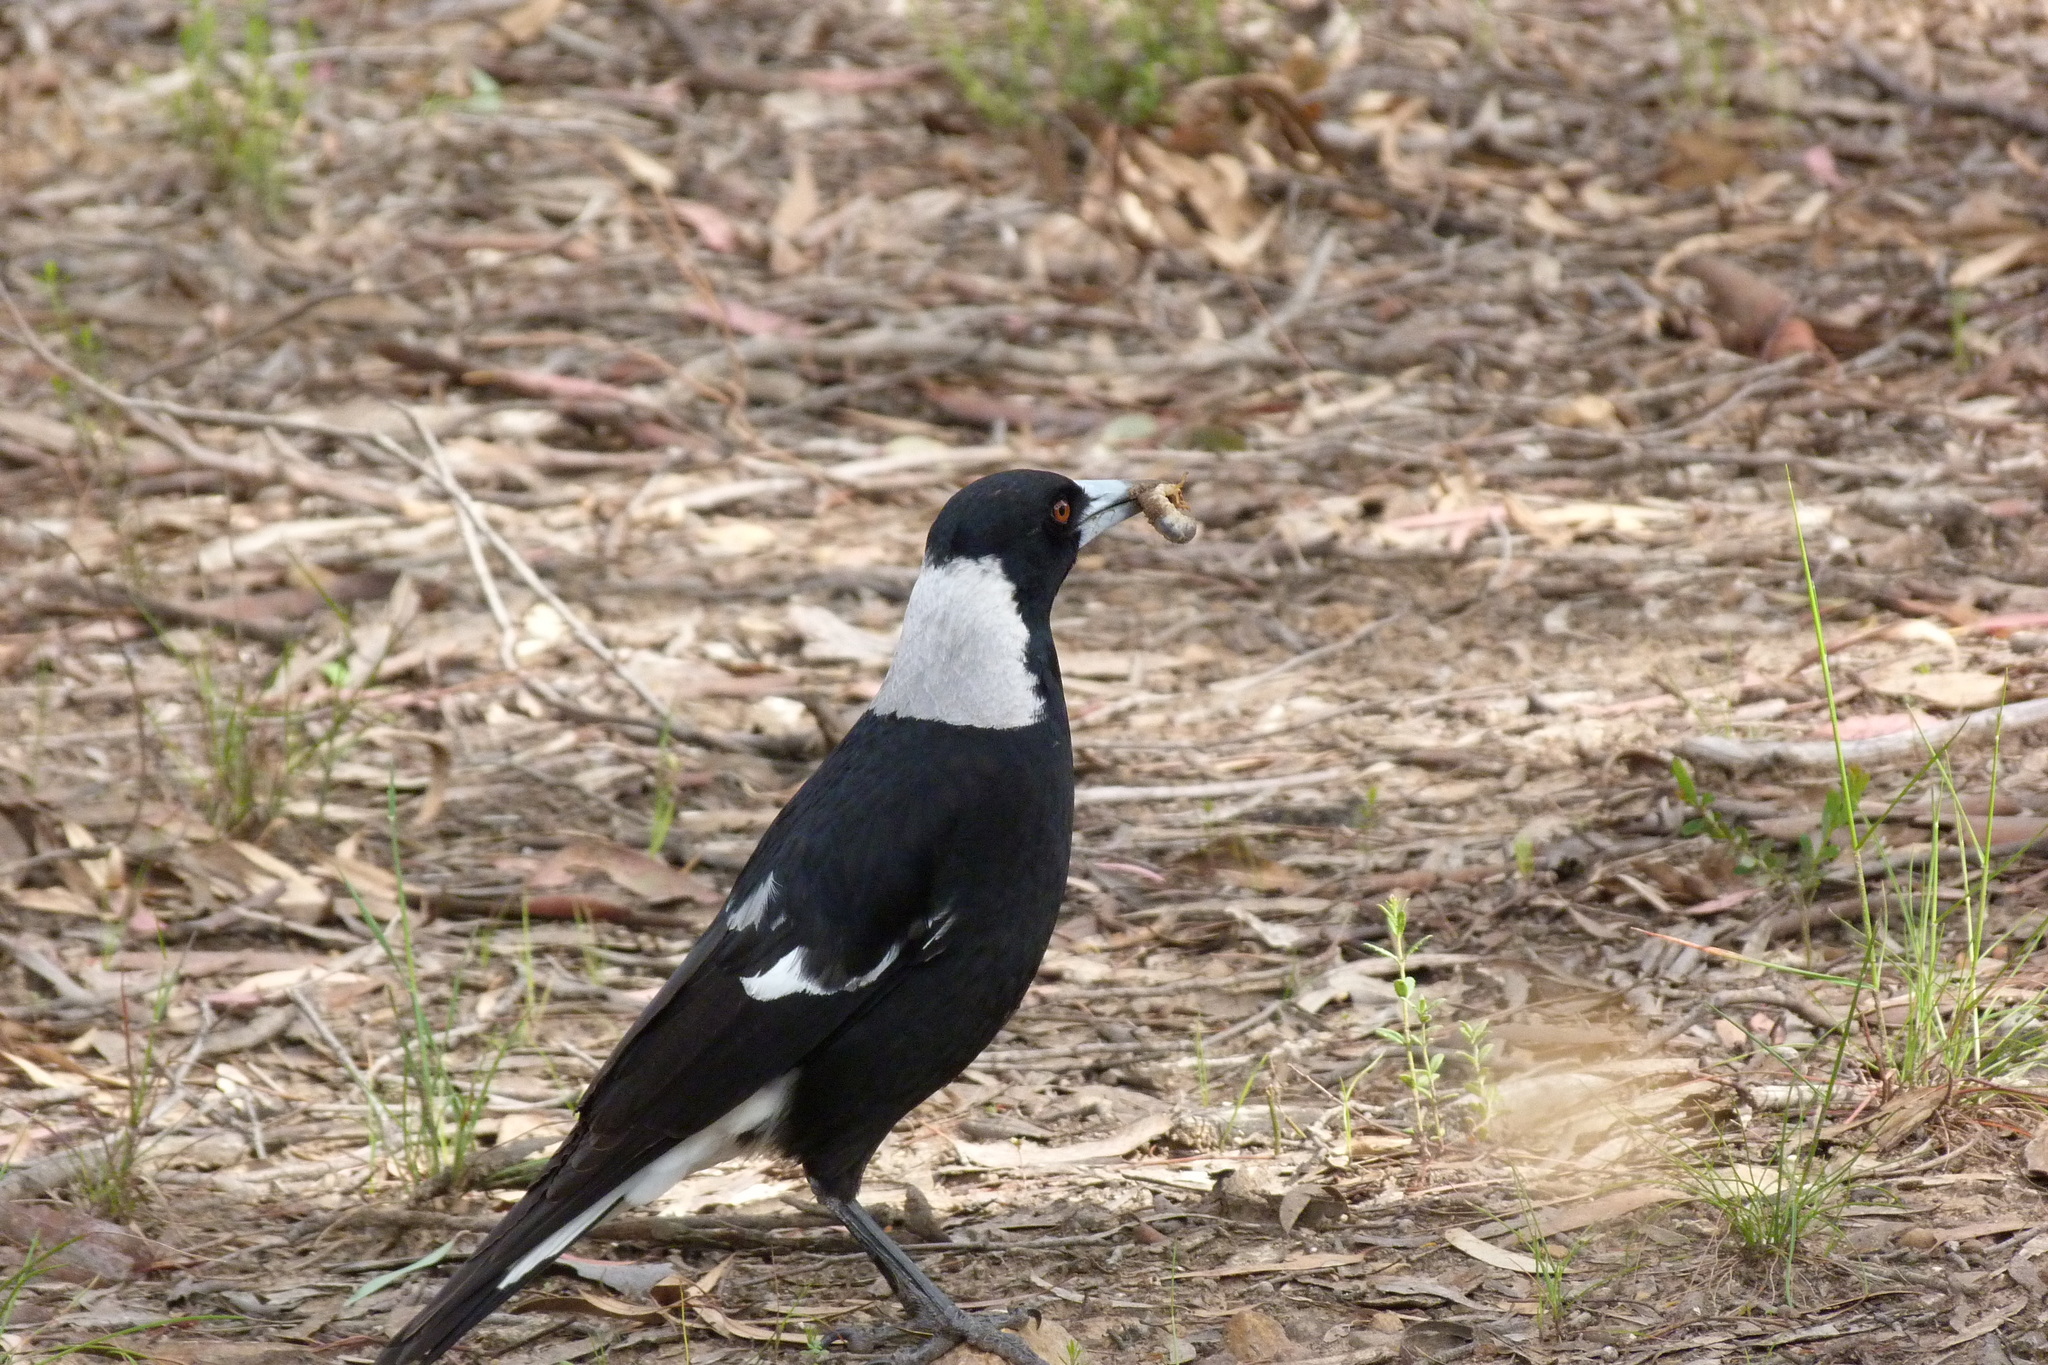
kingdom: Animalia
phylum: Chordata
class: Aves
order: Passeriformes
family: Cracticidae
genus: Gymnorhina
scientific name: Gymnorhina tibicen
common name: Australian magpie
